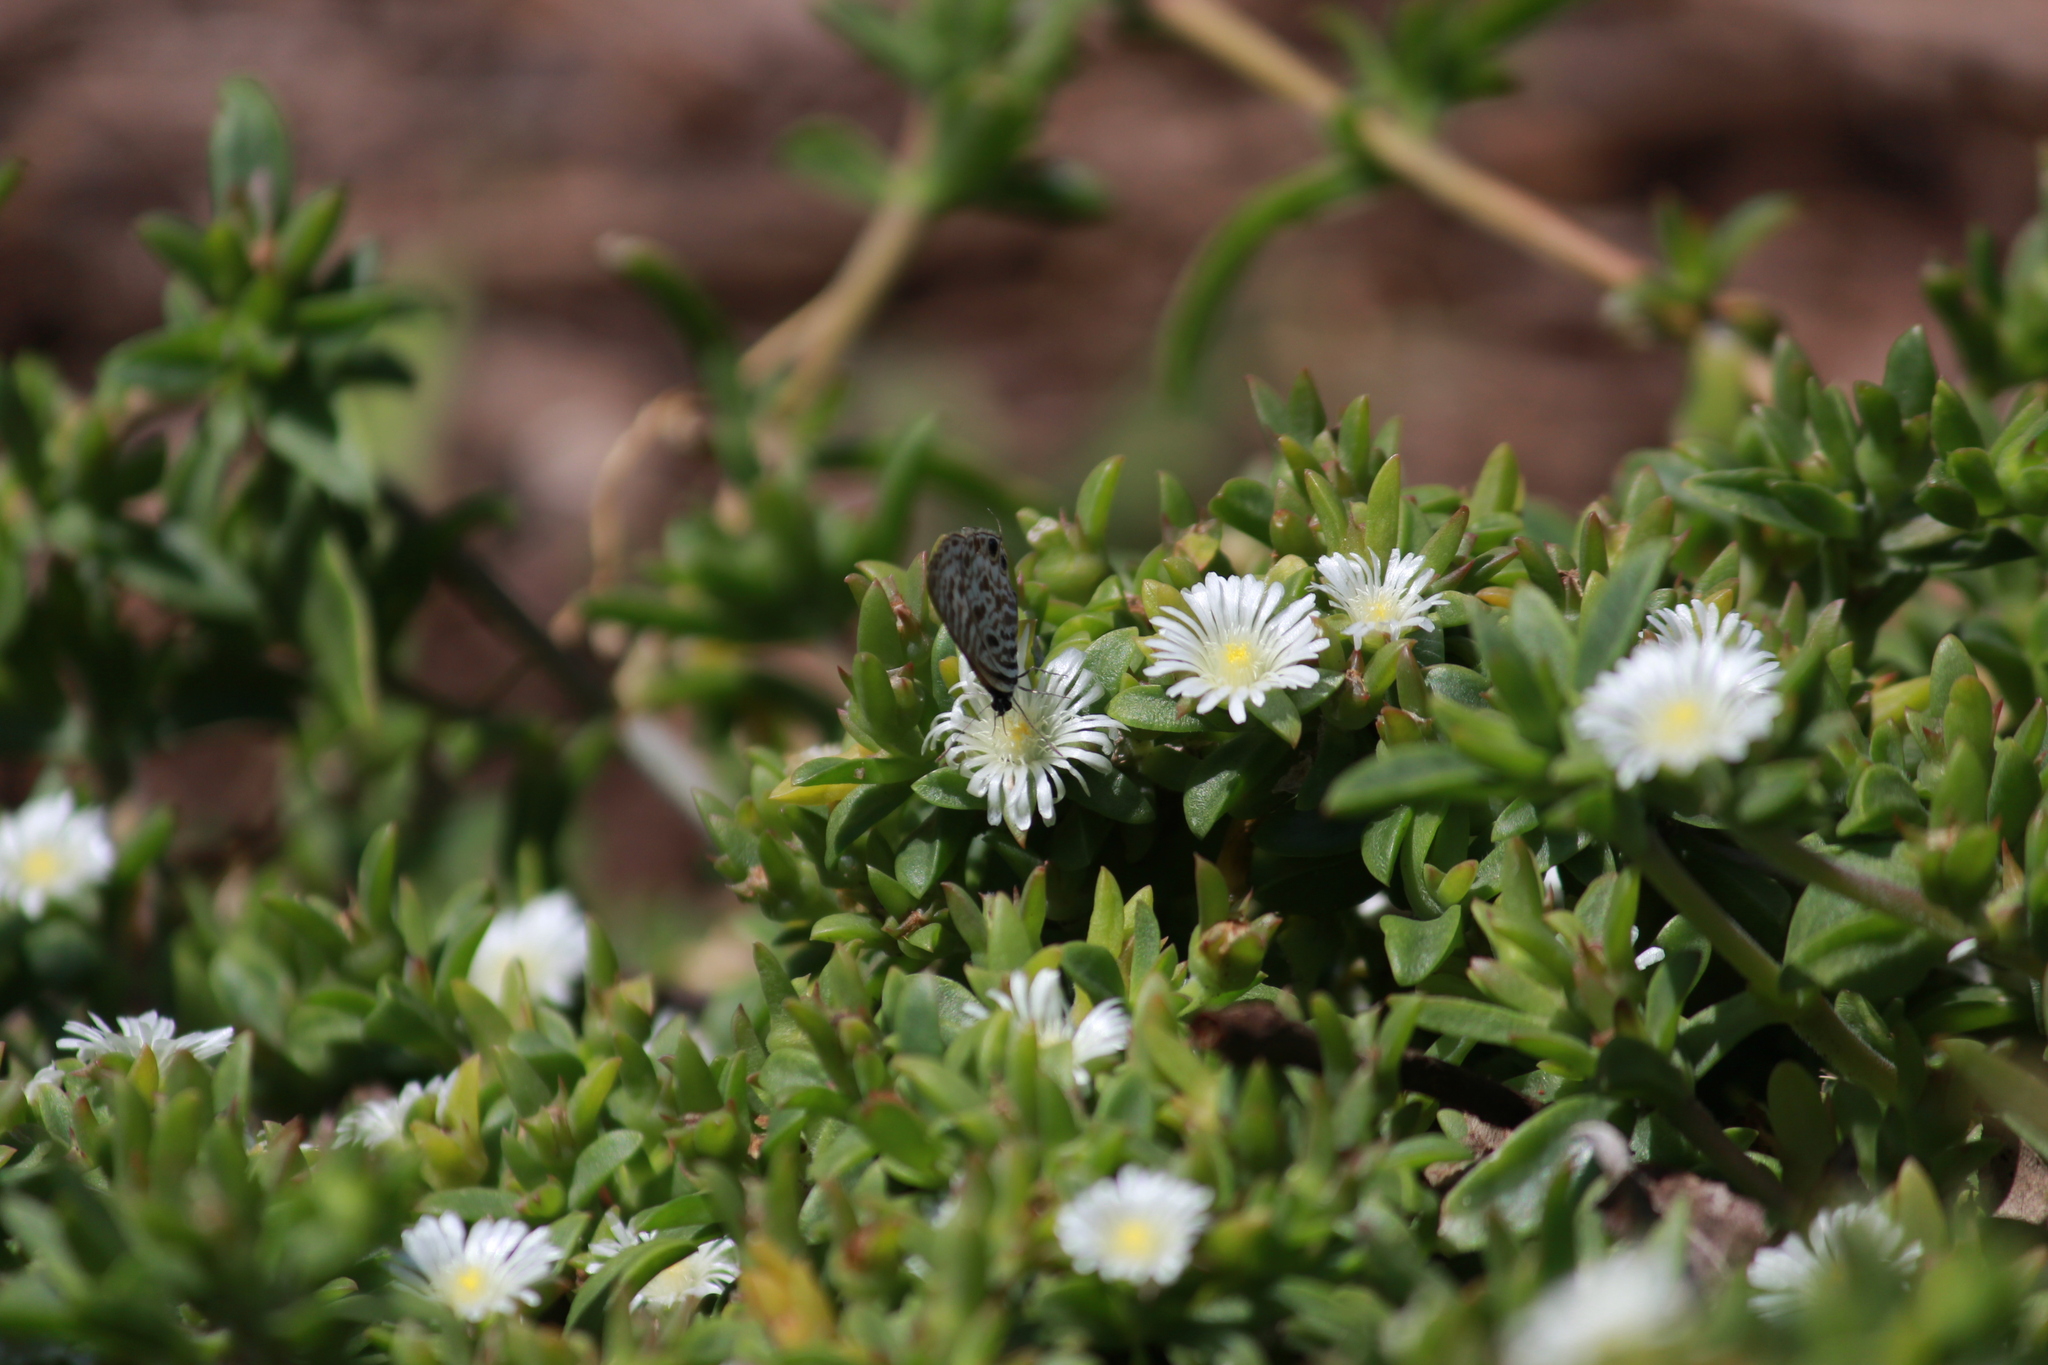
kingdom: Animalia
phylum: Arthropoda
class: Insecta
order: Lepidoptera
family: Lycaenidae
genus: Leptotes
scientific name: Leptotes
